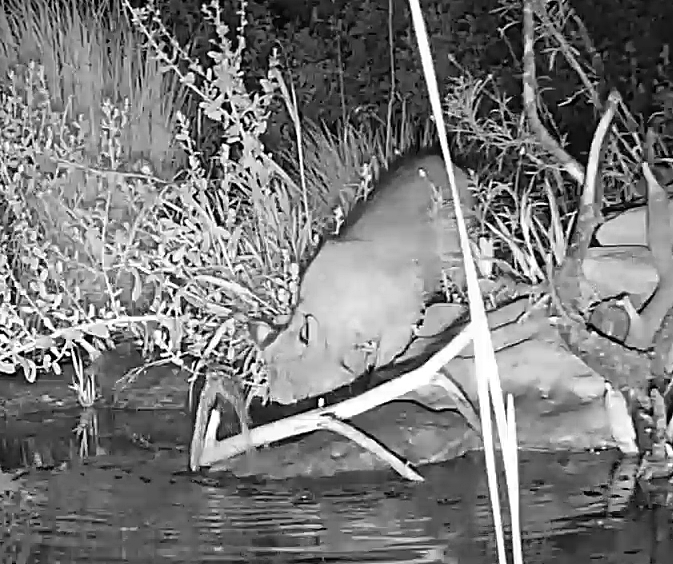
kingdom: Animalia
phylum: Chordata
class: Mammalia
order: Carnivora
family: Felidae
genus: Lynx
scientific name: Lynx rufus
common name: Bobcat
